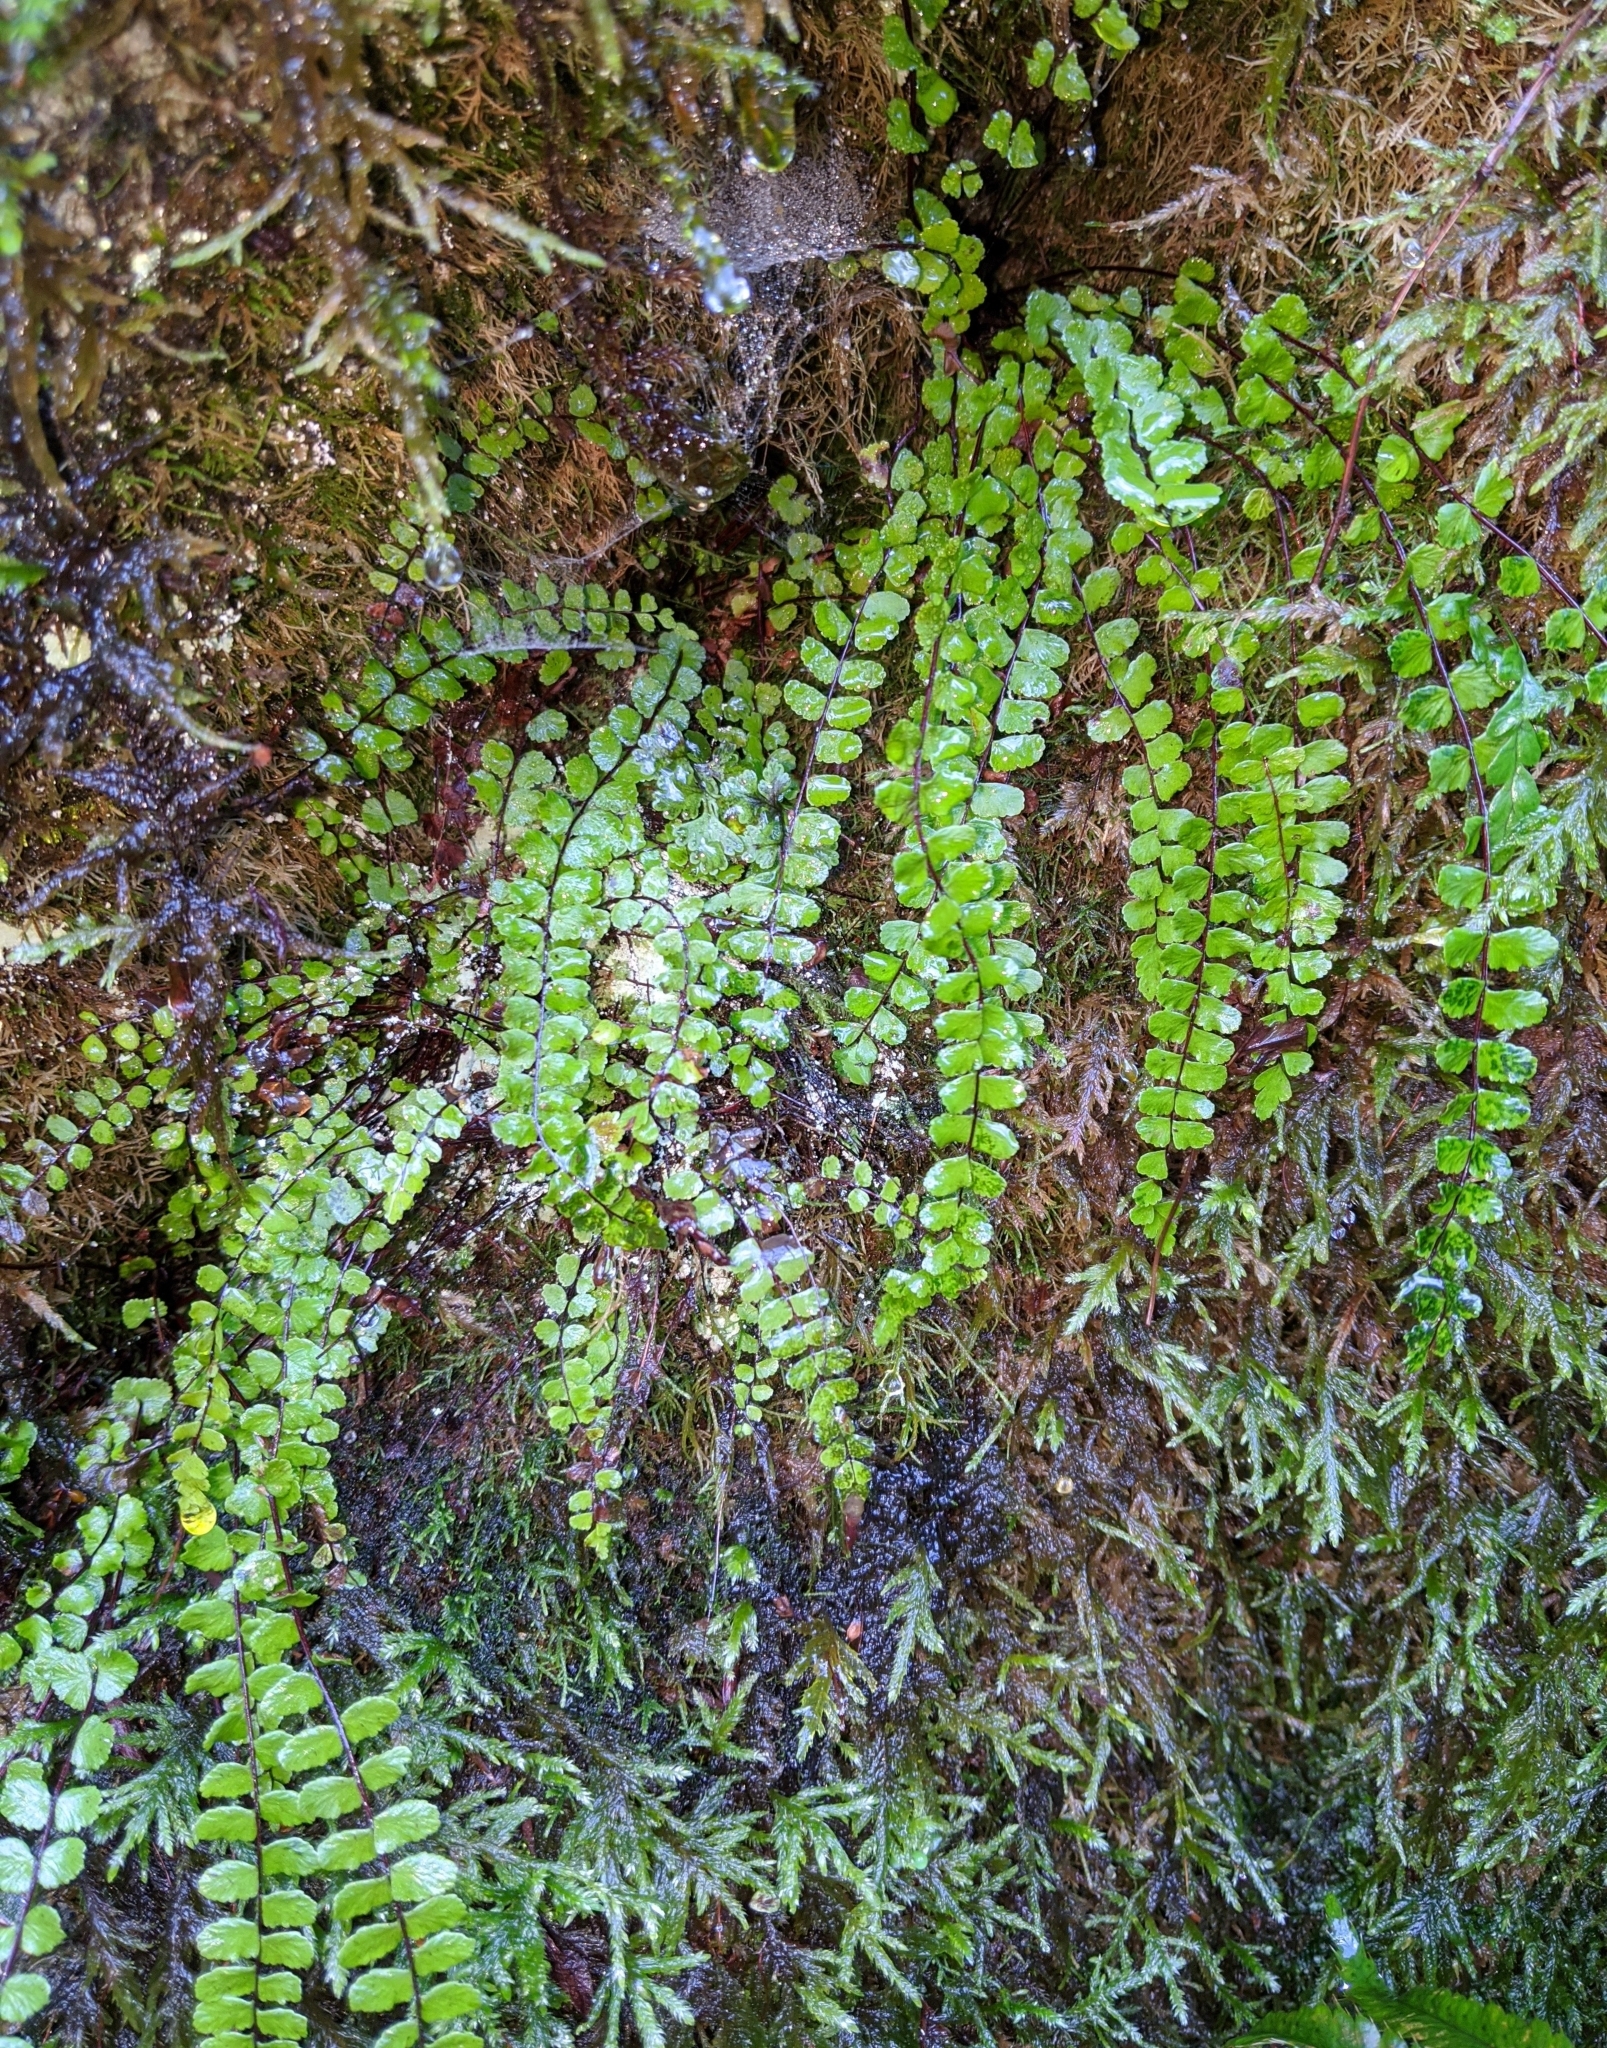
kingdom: Plantae
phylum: Tracheophyta
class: Polypodiopsida
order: Polypodiales
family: Aspleniaceae
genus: Asplenium
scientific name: Asplenium trichomanes
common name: Maidenhair spleenwort
